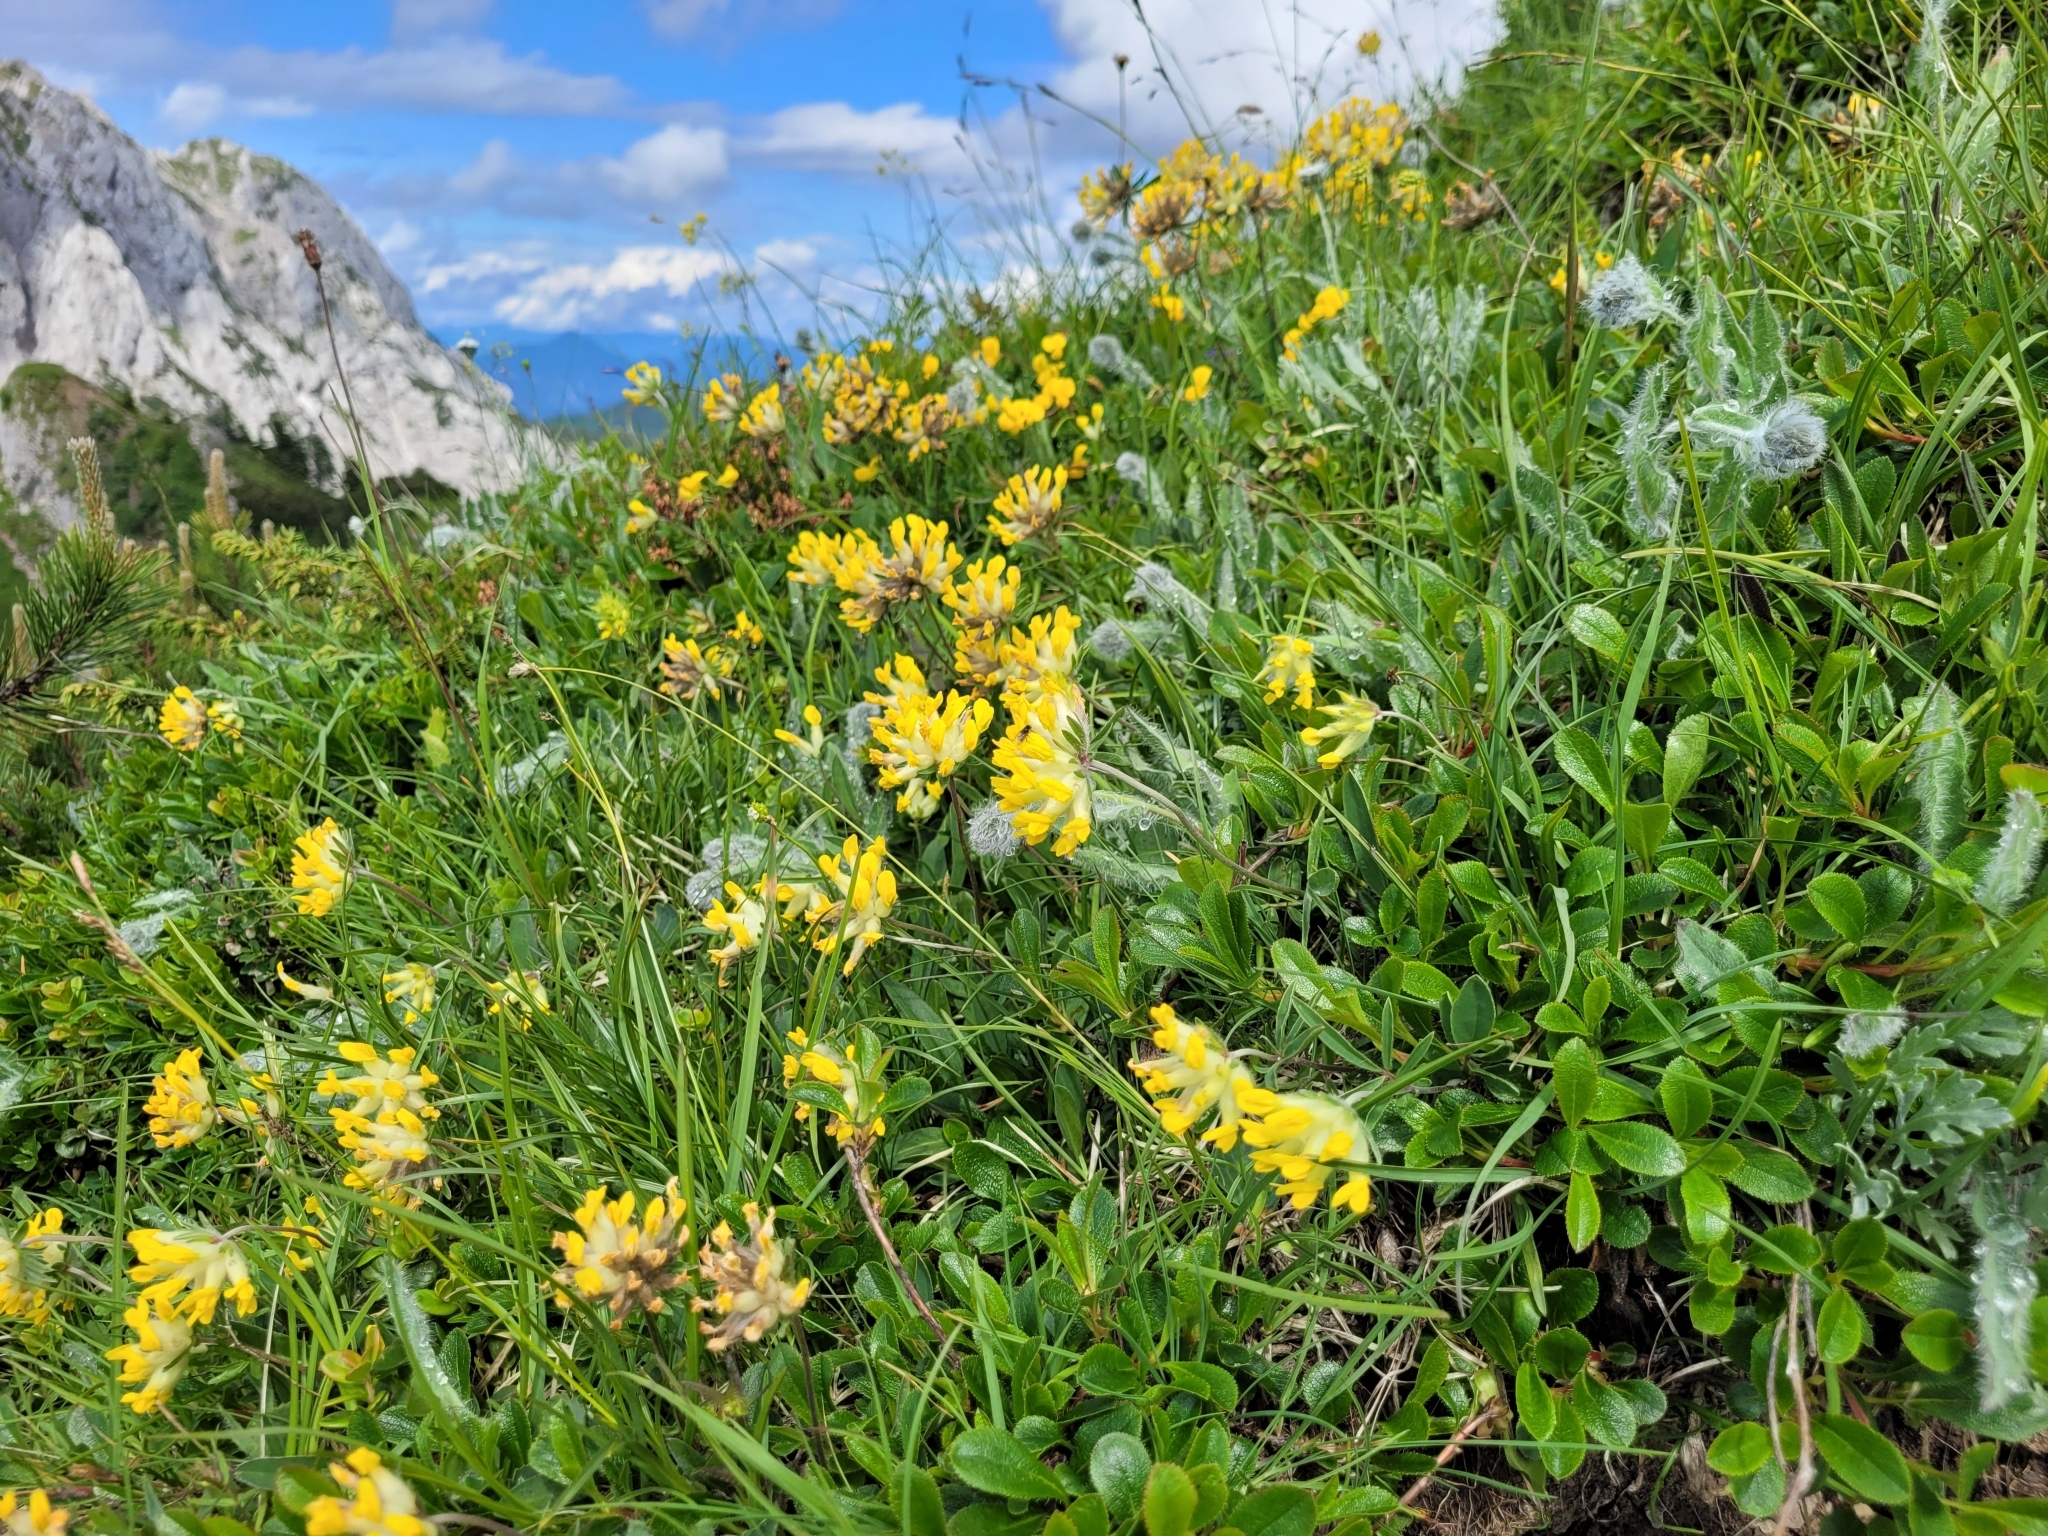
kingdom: Plantae
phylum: Tracheophyta
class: Magnoliopsida
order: Fabales
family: Fabaceae
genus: Anthyllis
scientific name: Anthyllis vulneraria
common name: Kidney vetch
